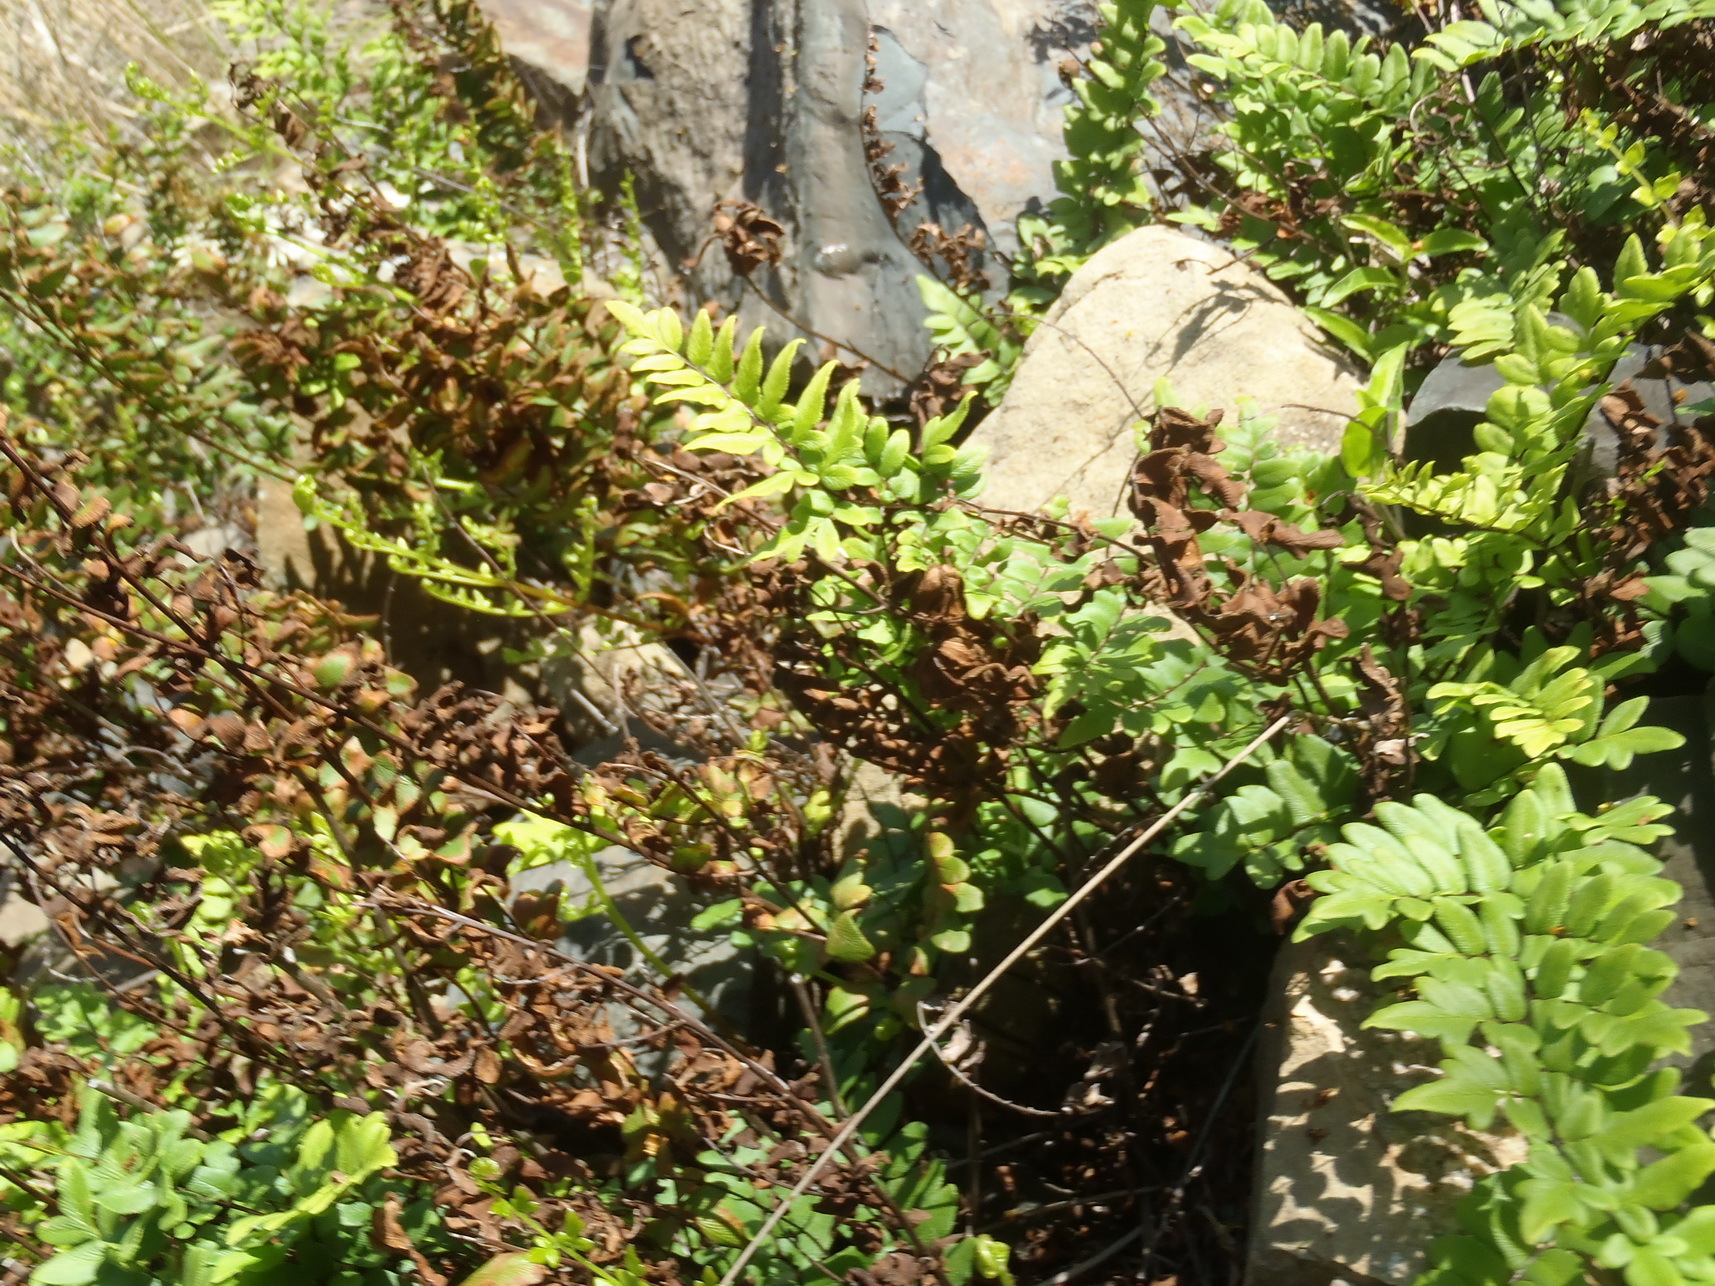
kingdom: Plantae
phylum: Tracheophyta
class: Polypodiopsida
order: Polypodiales
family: Pteridaceae
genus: Cheilanthes
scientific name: Cheilanthes viridis
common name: Green cliffbrake
